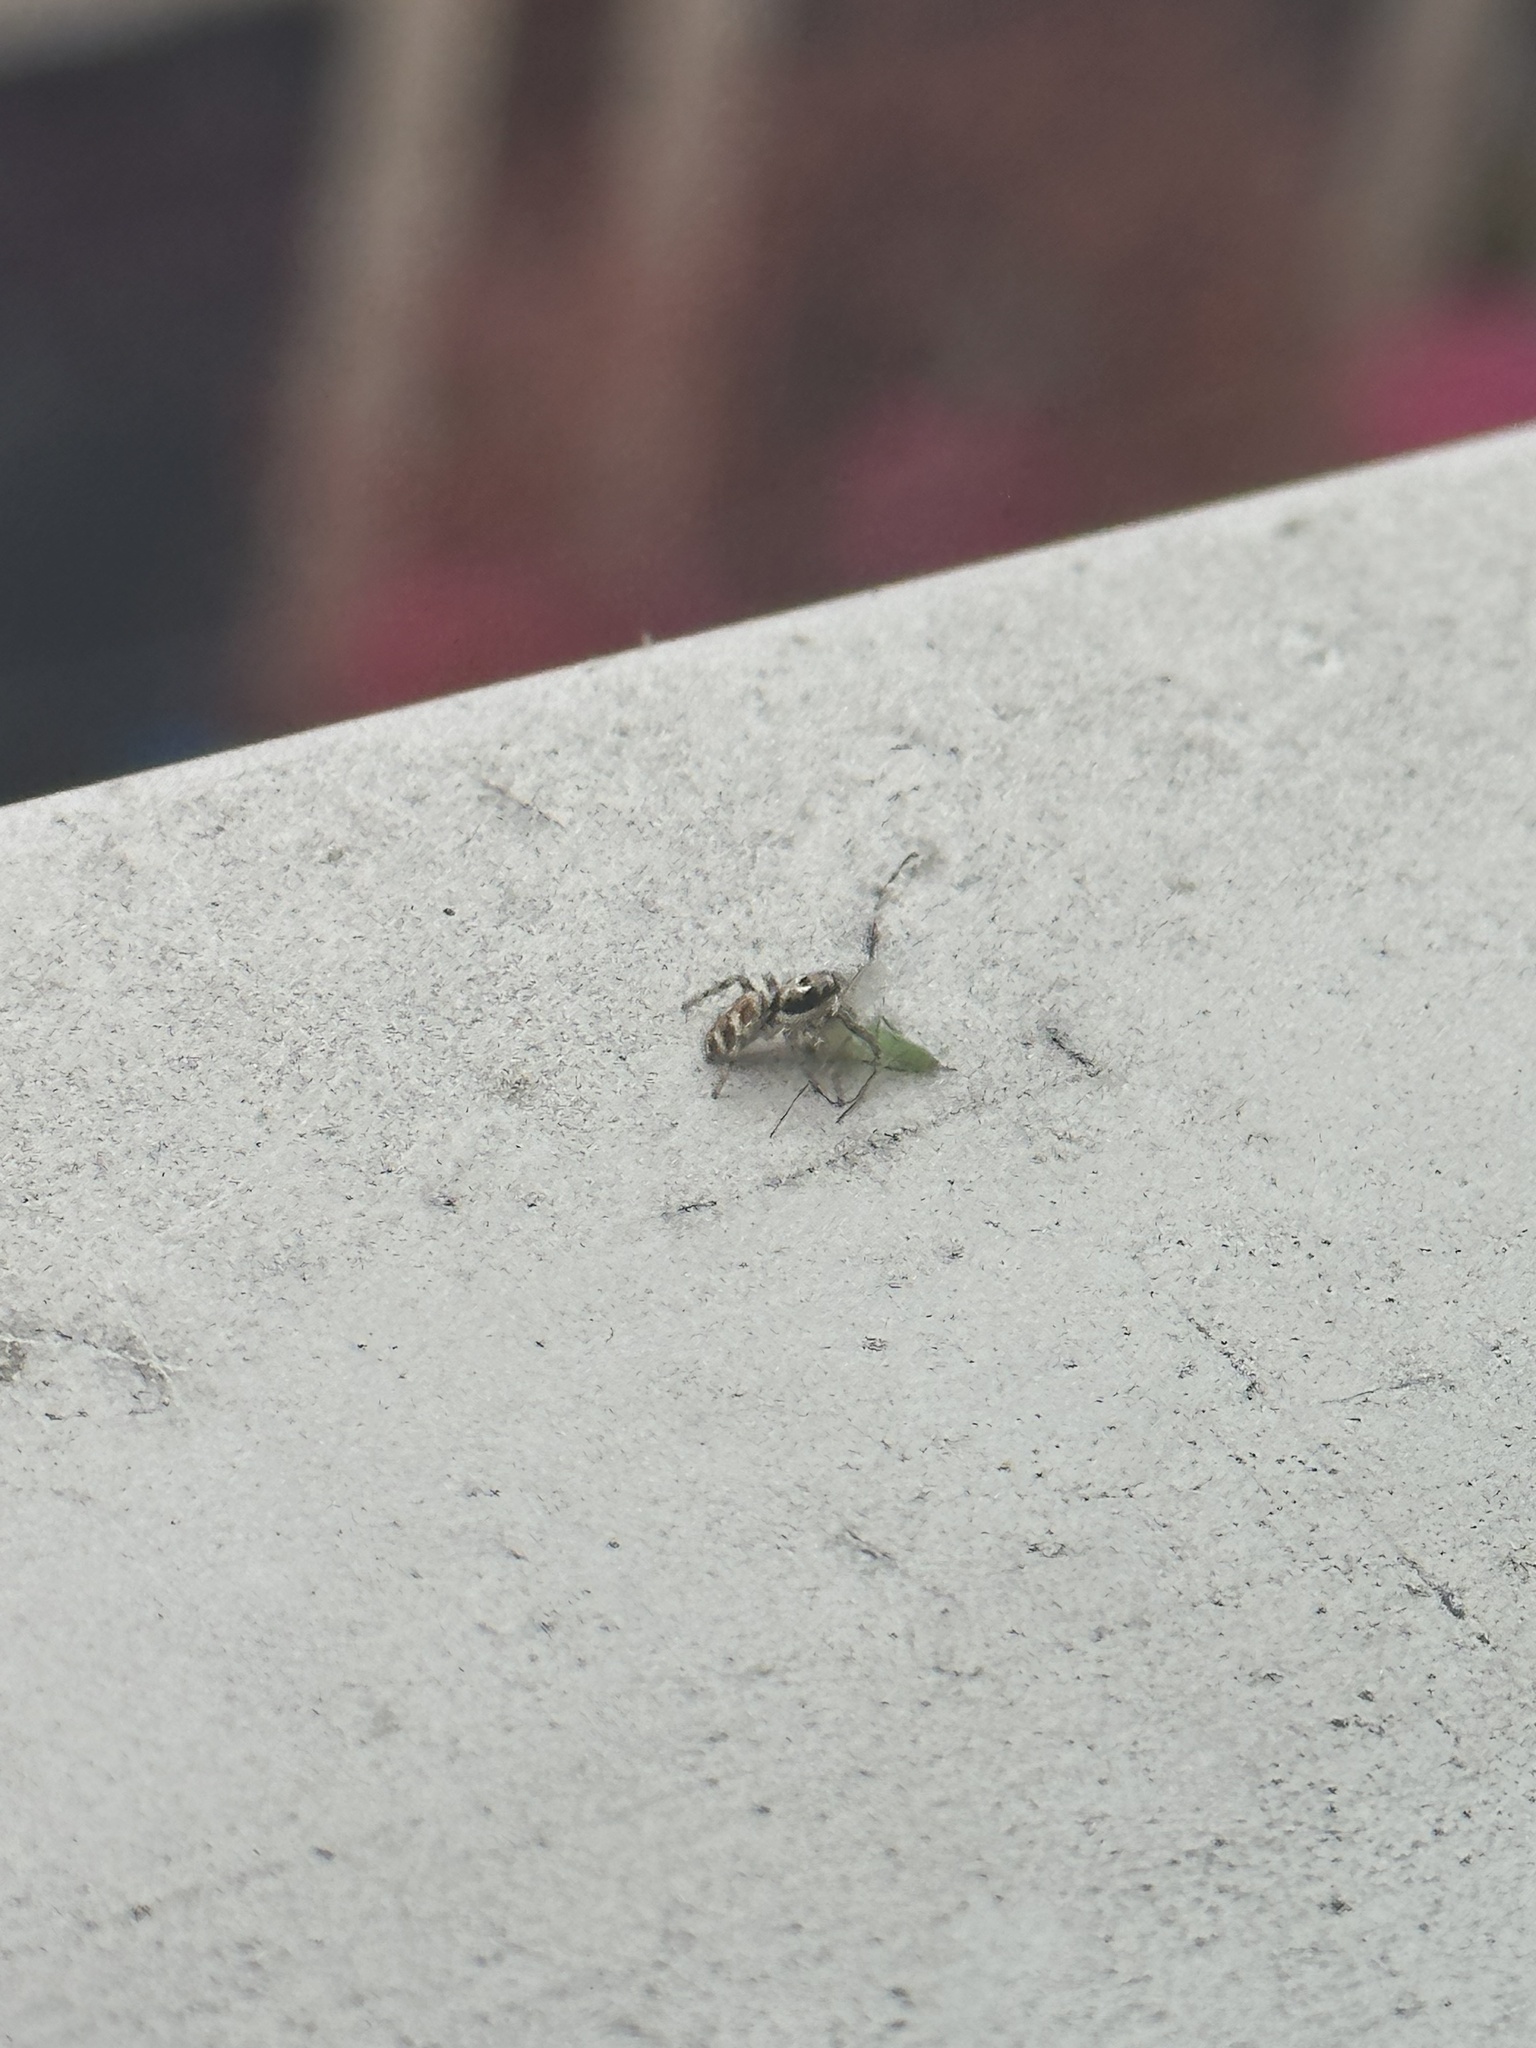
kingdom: Animalia
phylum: Arthropoda
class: Arachnida
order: Araneae
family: Salticidae
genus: Salticus
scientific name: Salticus scenicus
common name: Zebra jumper
